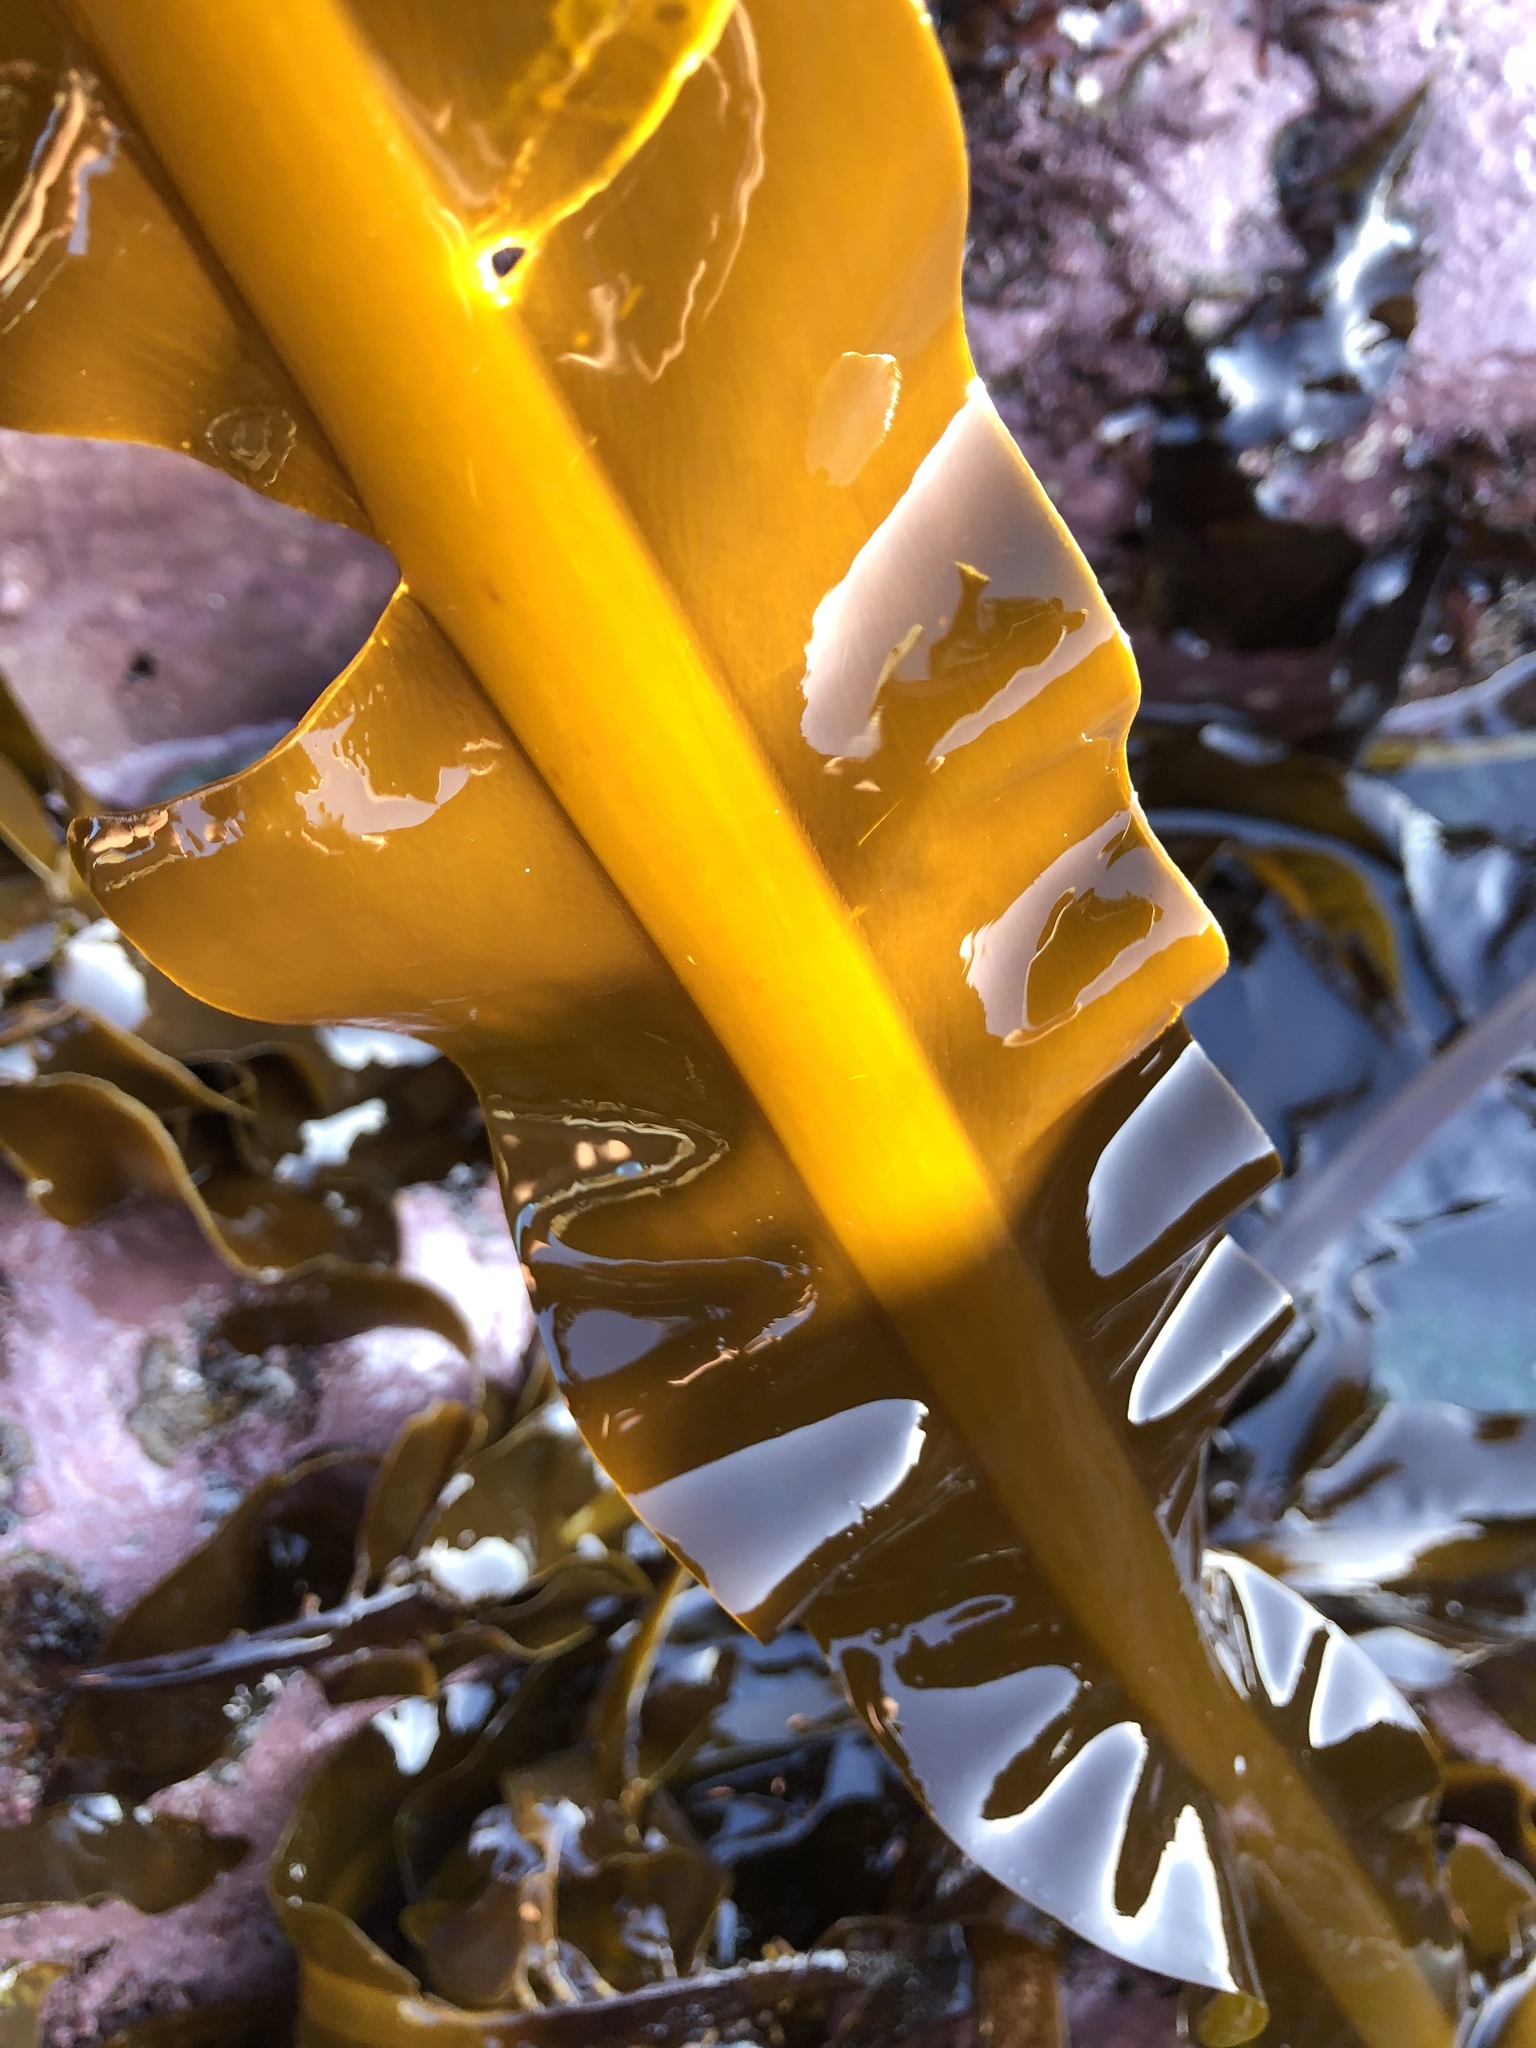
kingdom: Chromista
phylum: Ochrophyta
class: Phaeophyceae
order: Laminariales
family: Alariaceae
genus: Alaria
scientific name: Alaria marginata
